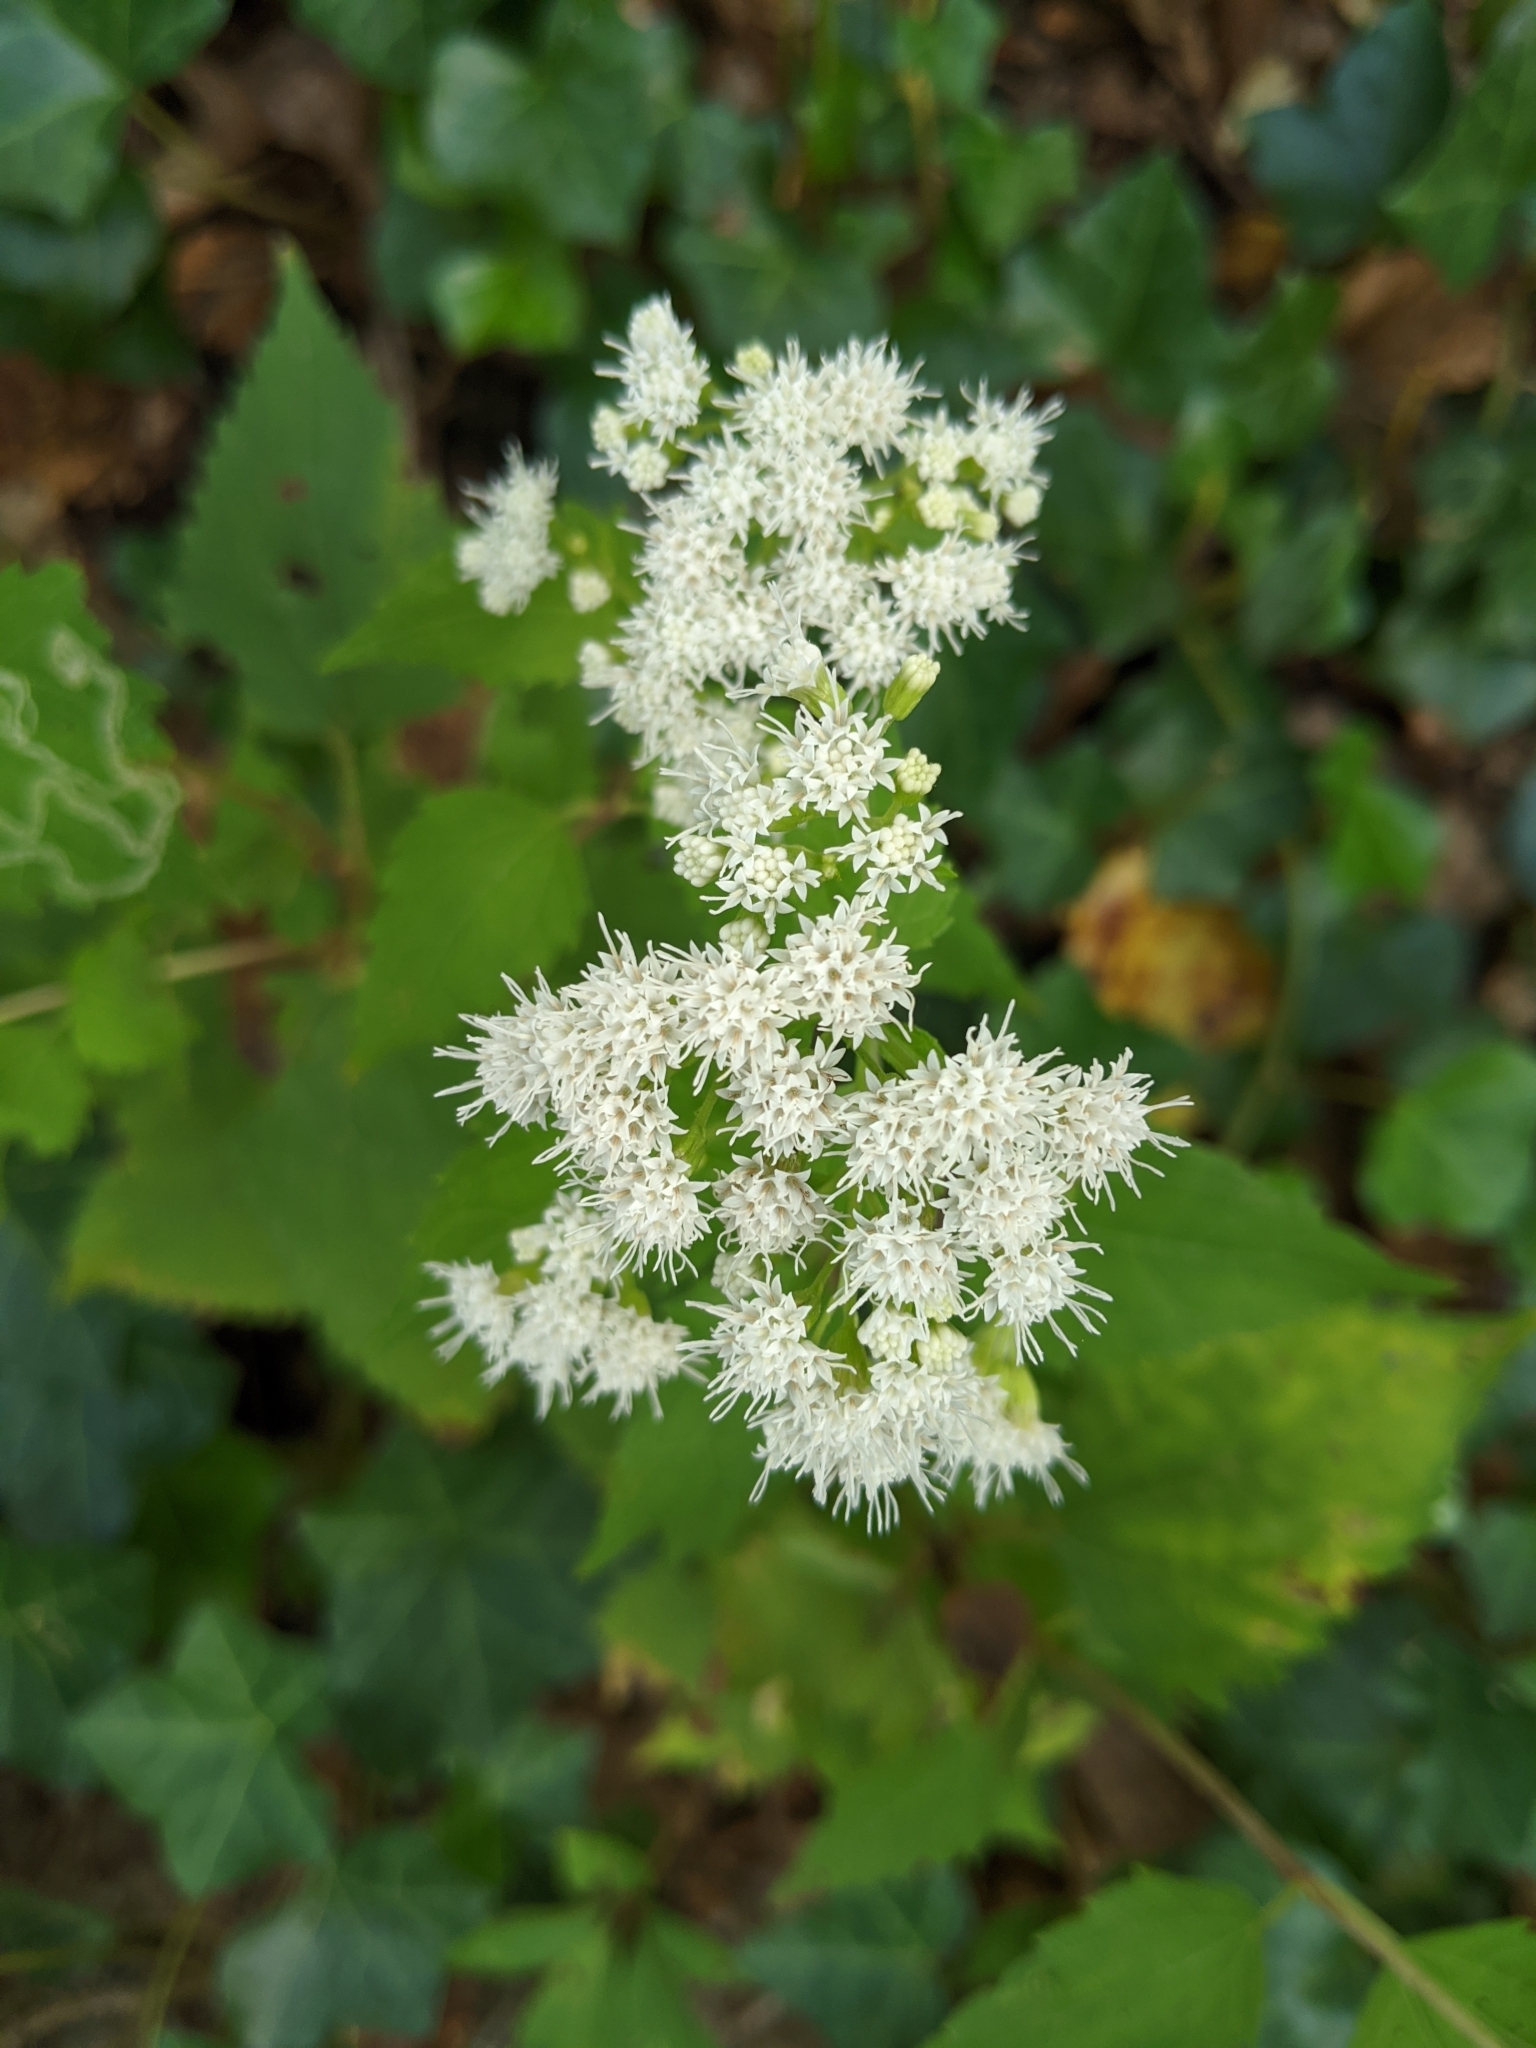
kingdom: Plantae
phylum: Tracheophyta
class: Magnoliopsida
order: Asterales
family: Asteraceae
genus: Ageratina
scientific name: Ageratina altissima
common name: White snakeroot
